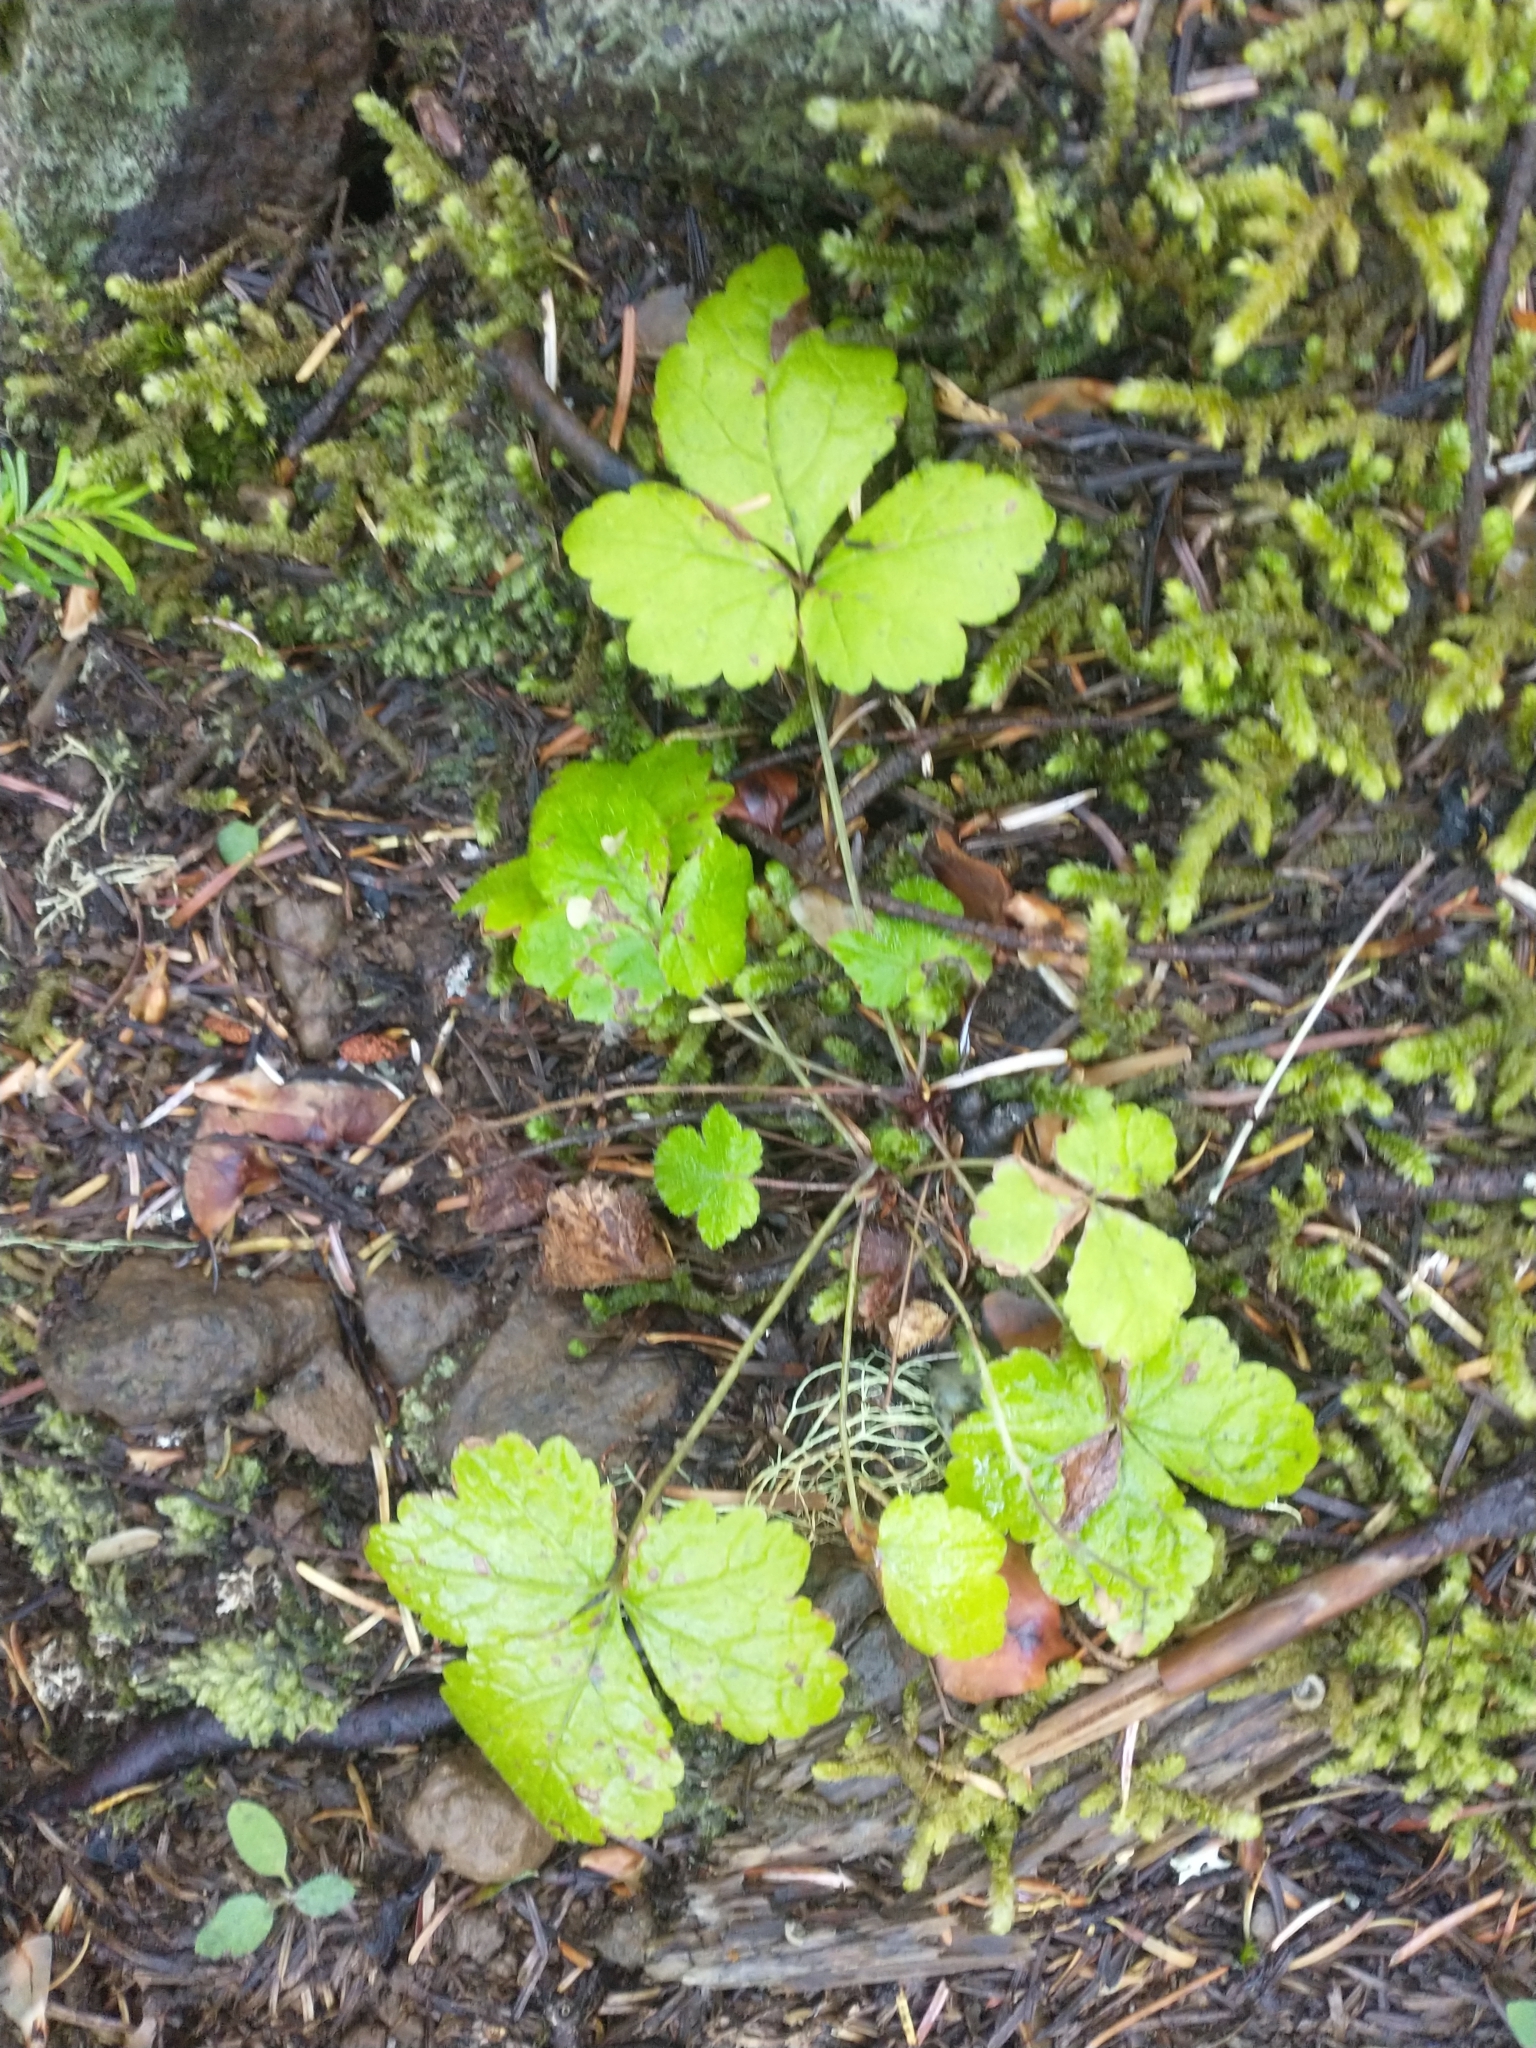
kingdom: Plantae
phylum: Tracheophyta
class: Magnoliopsida
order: Saxifragales
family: Saxifragaceae
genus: Tiarella
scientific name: Tiarella trifoliata
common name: Sugar-scoop
